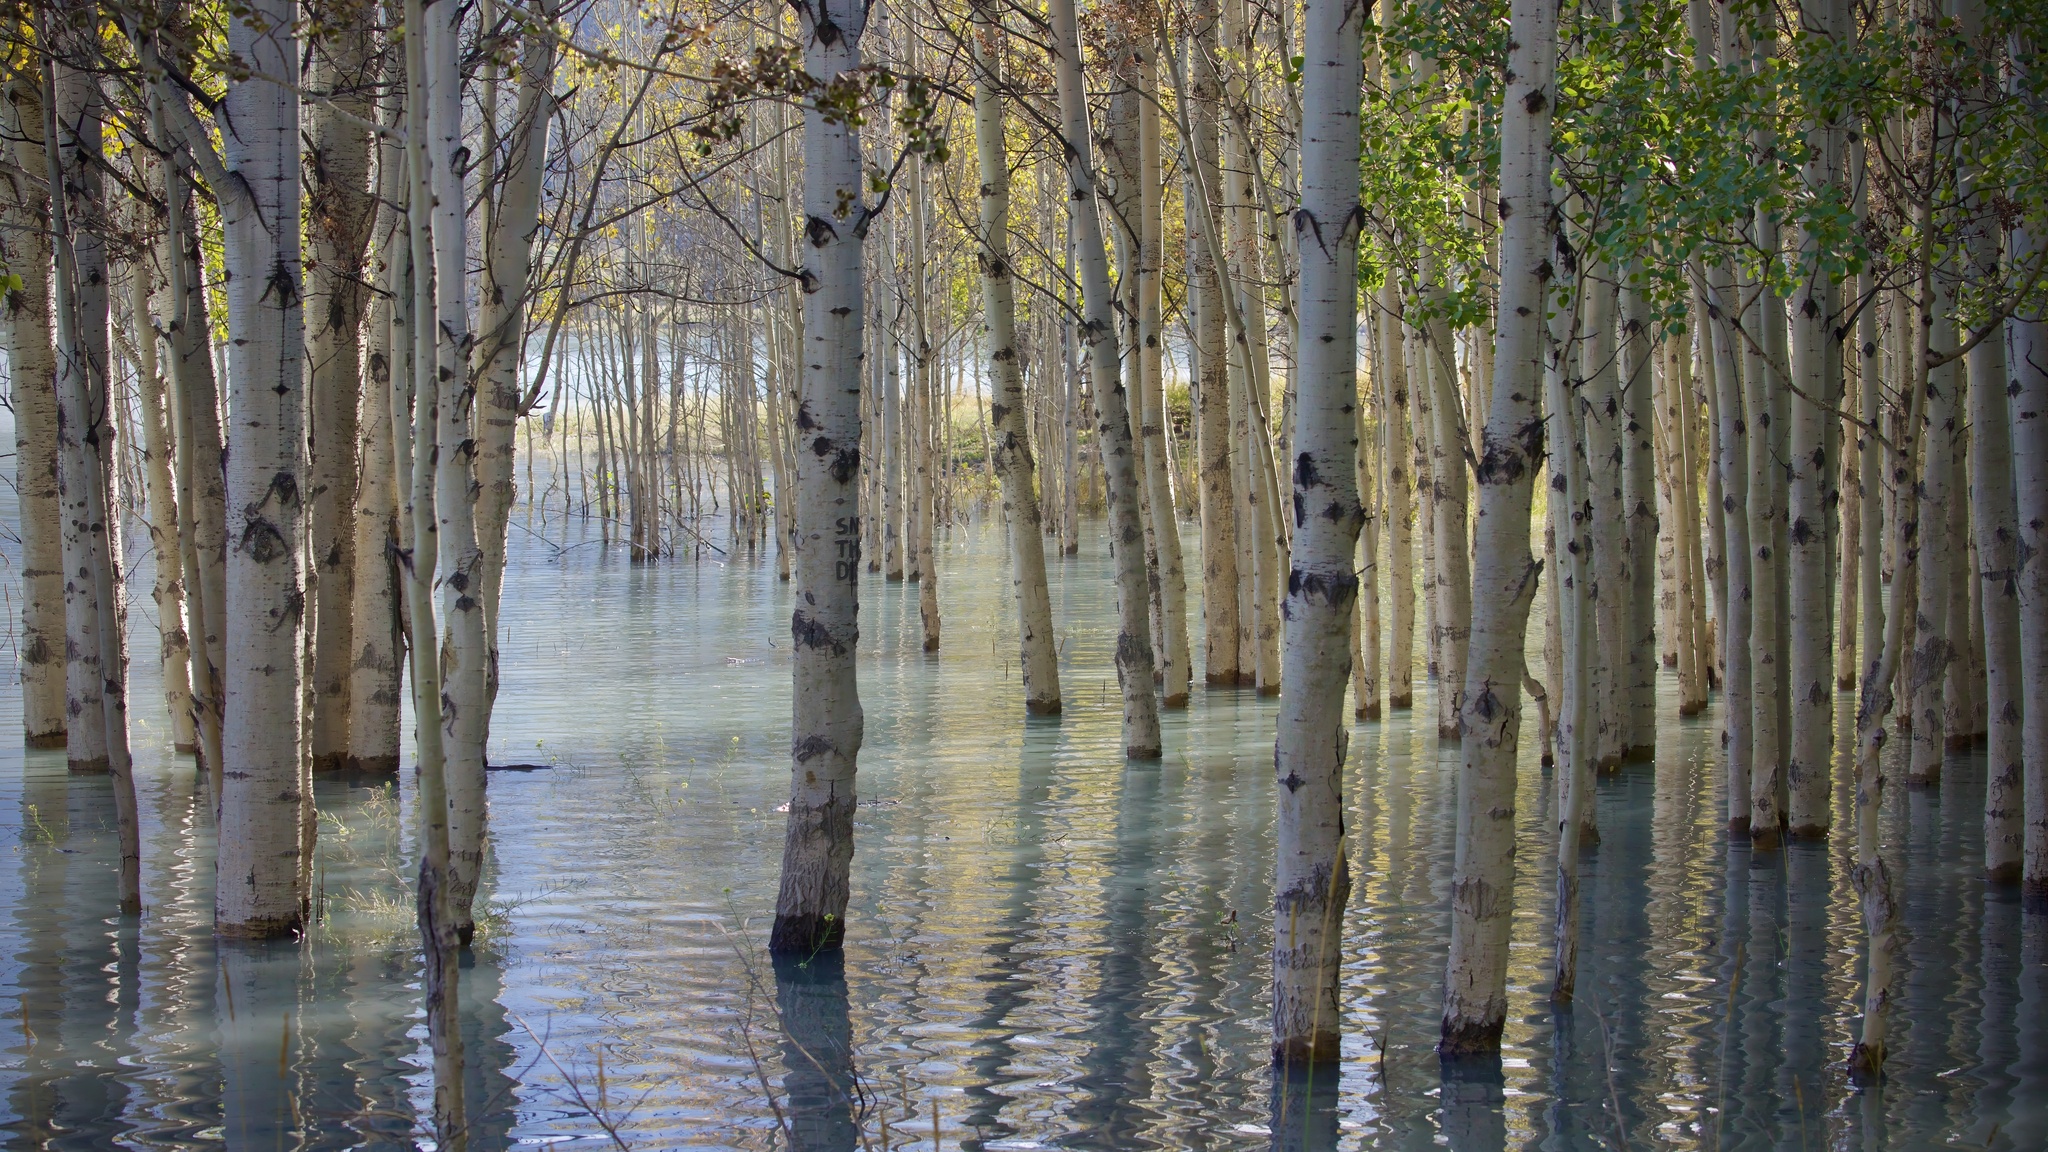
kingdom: Plantae
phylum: Tracheophyta
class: Magnoliopsida
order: Malpighiales
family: Salicaceae
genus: Populus
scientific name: Populus tremuloides
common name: Quaking aspen
